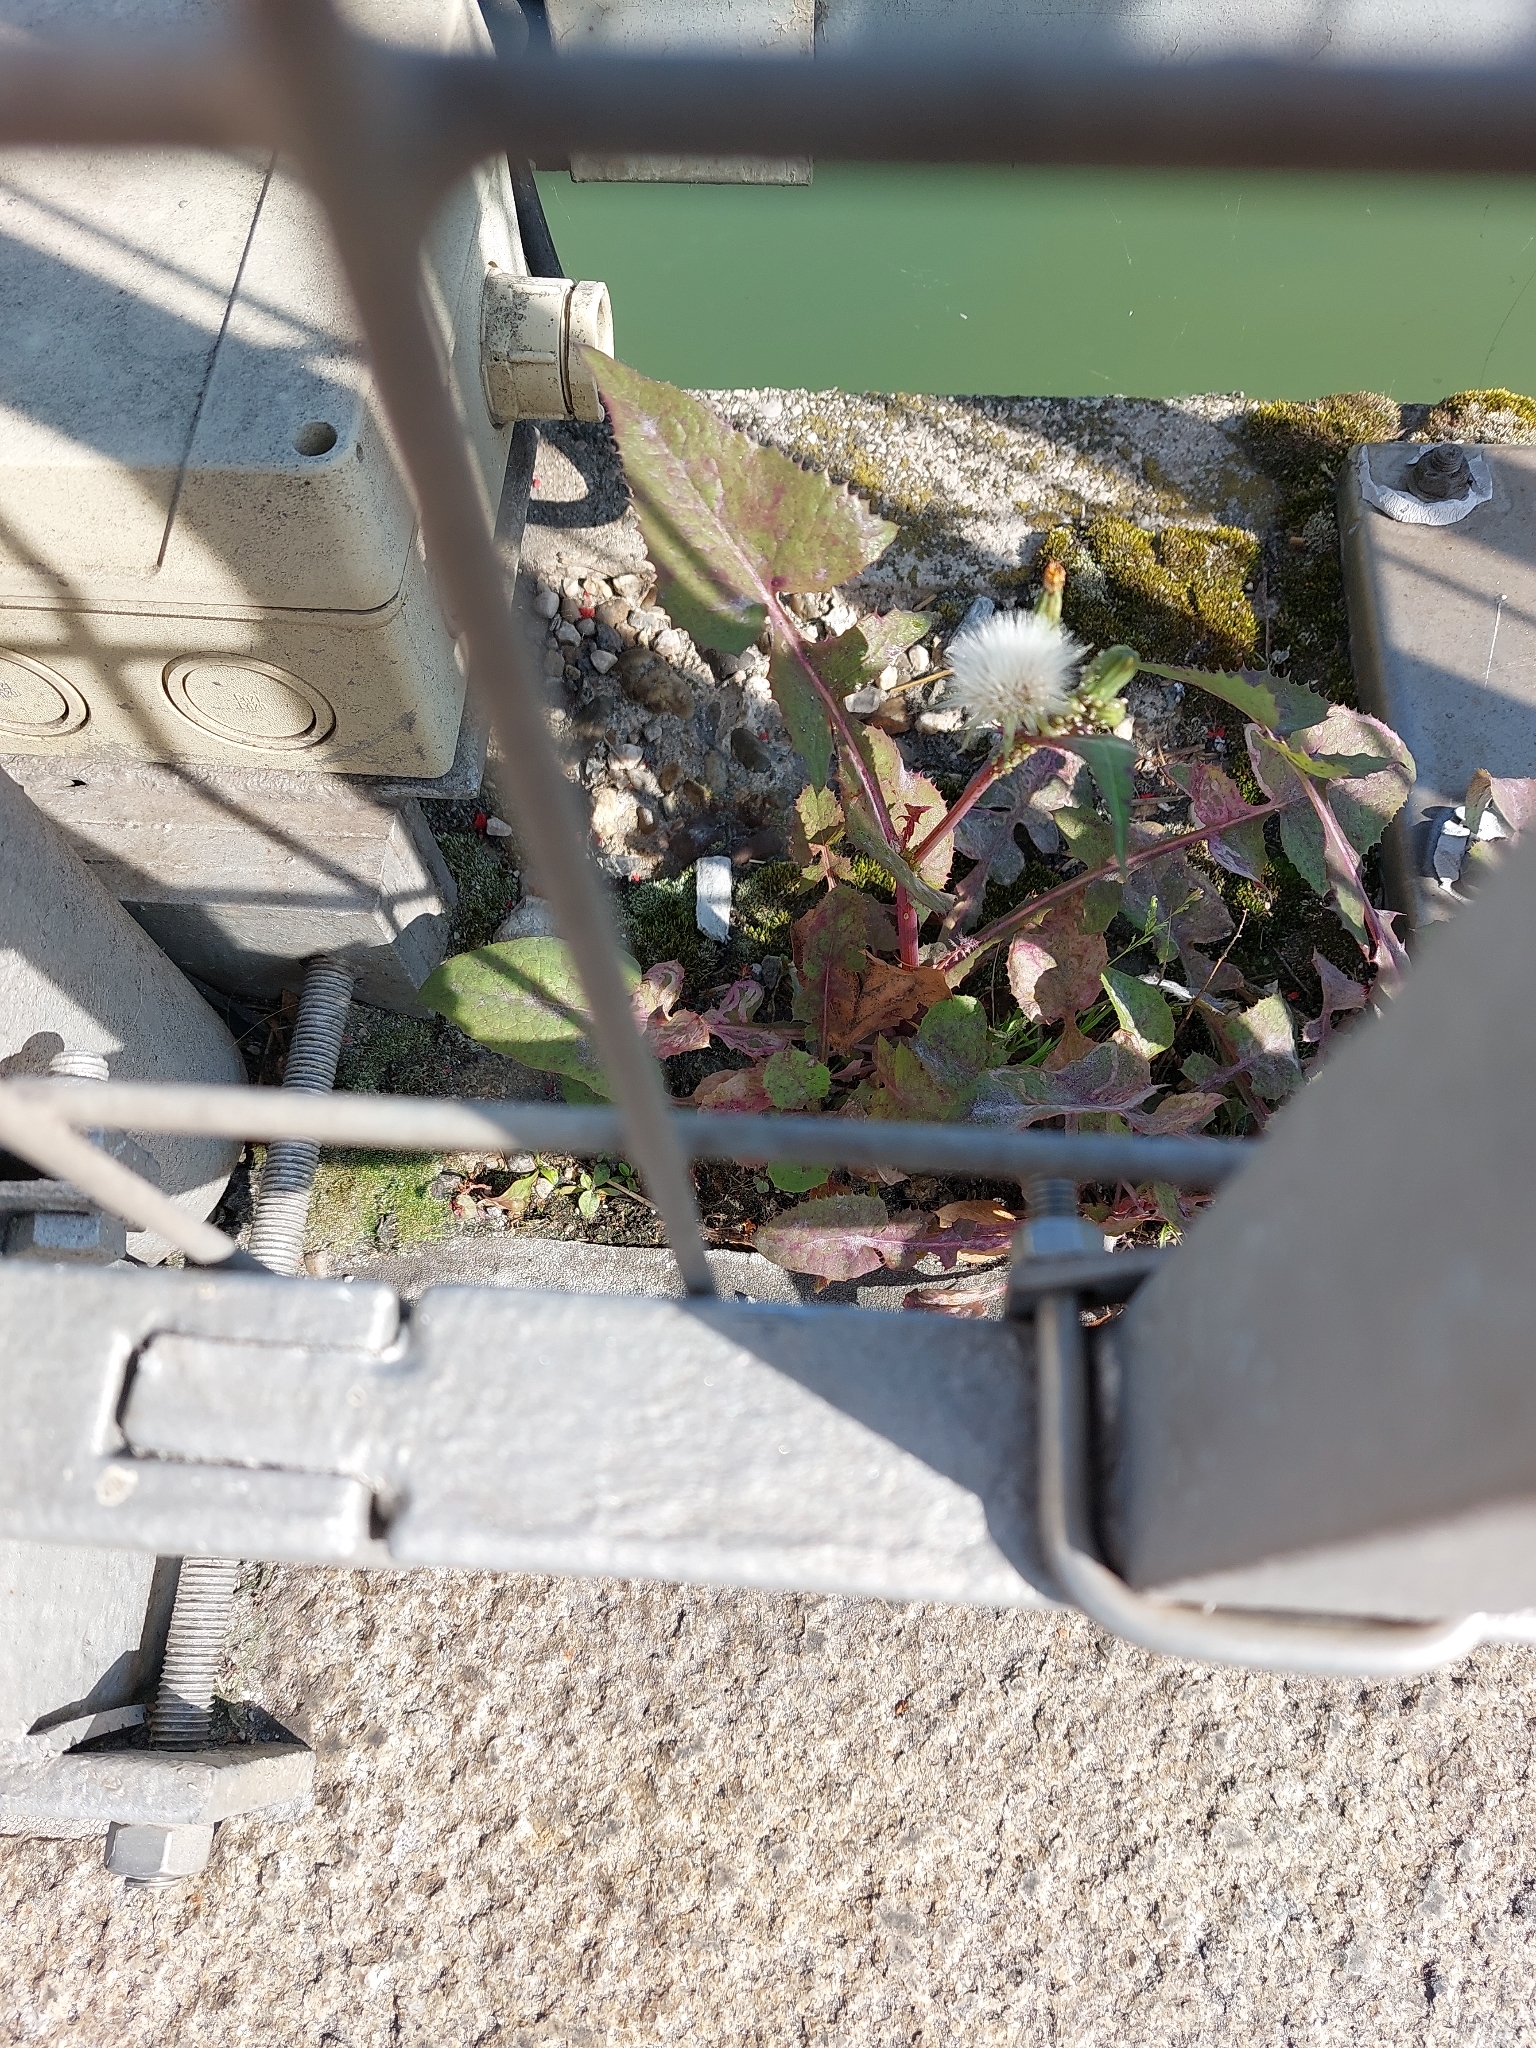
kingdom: Plantae
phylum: Tracheophyta
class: Magnoliopsida
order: Asterales
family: Asteraceae
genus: Sonchus
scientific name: Sonchus oleraceus
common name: Common sowthistle
